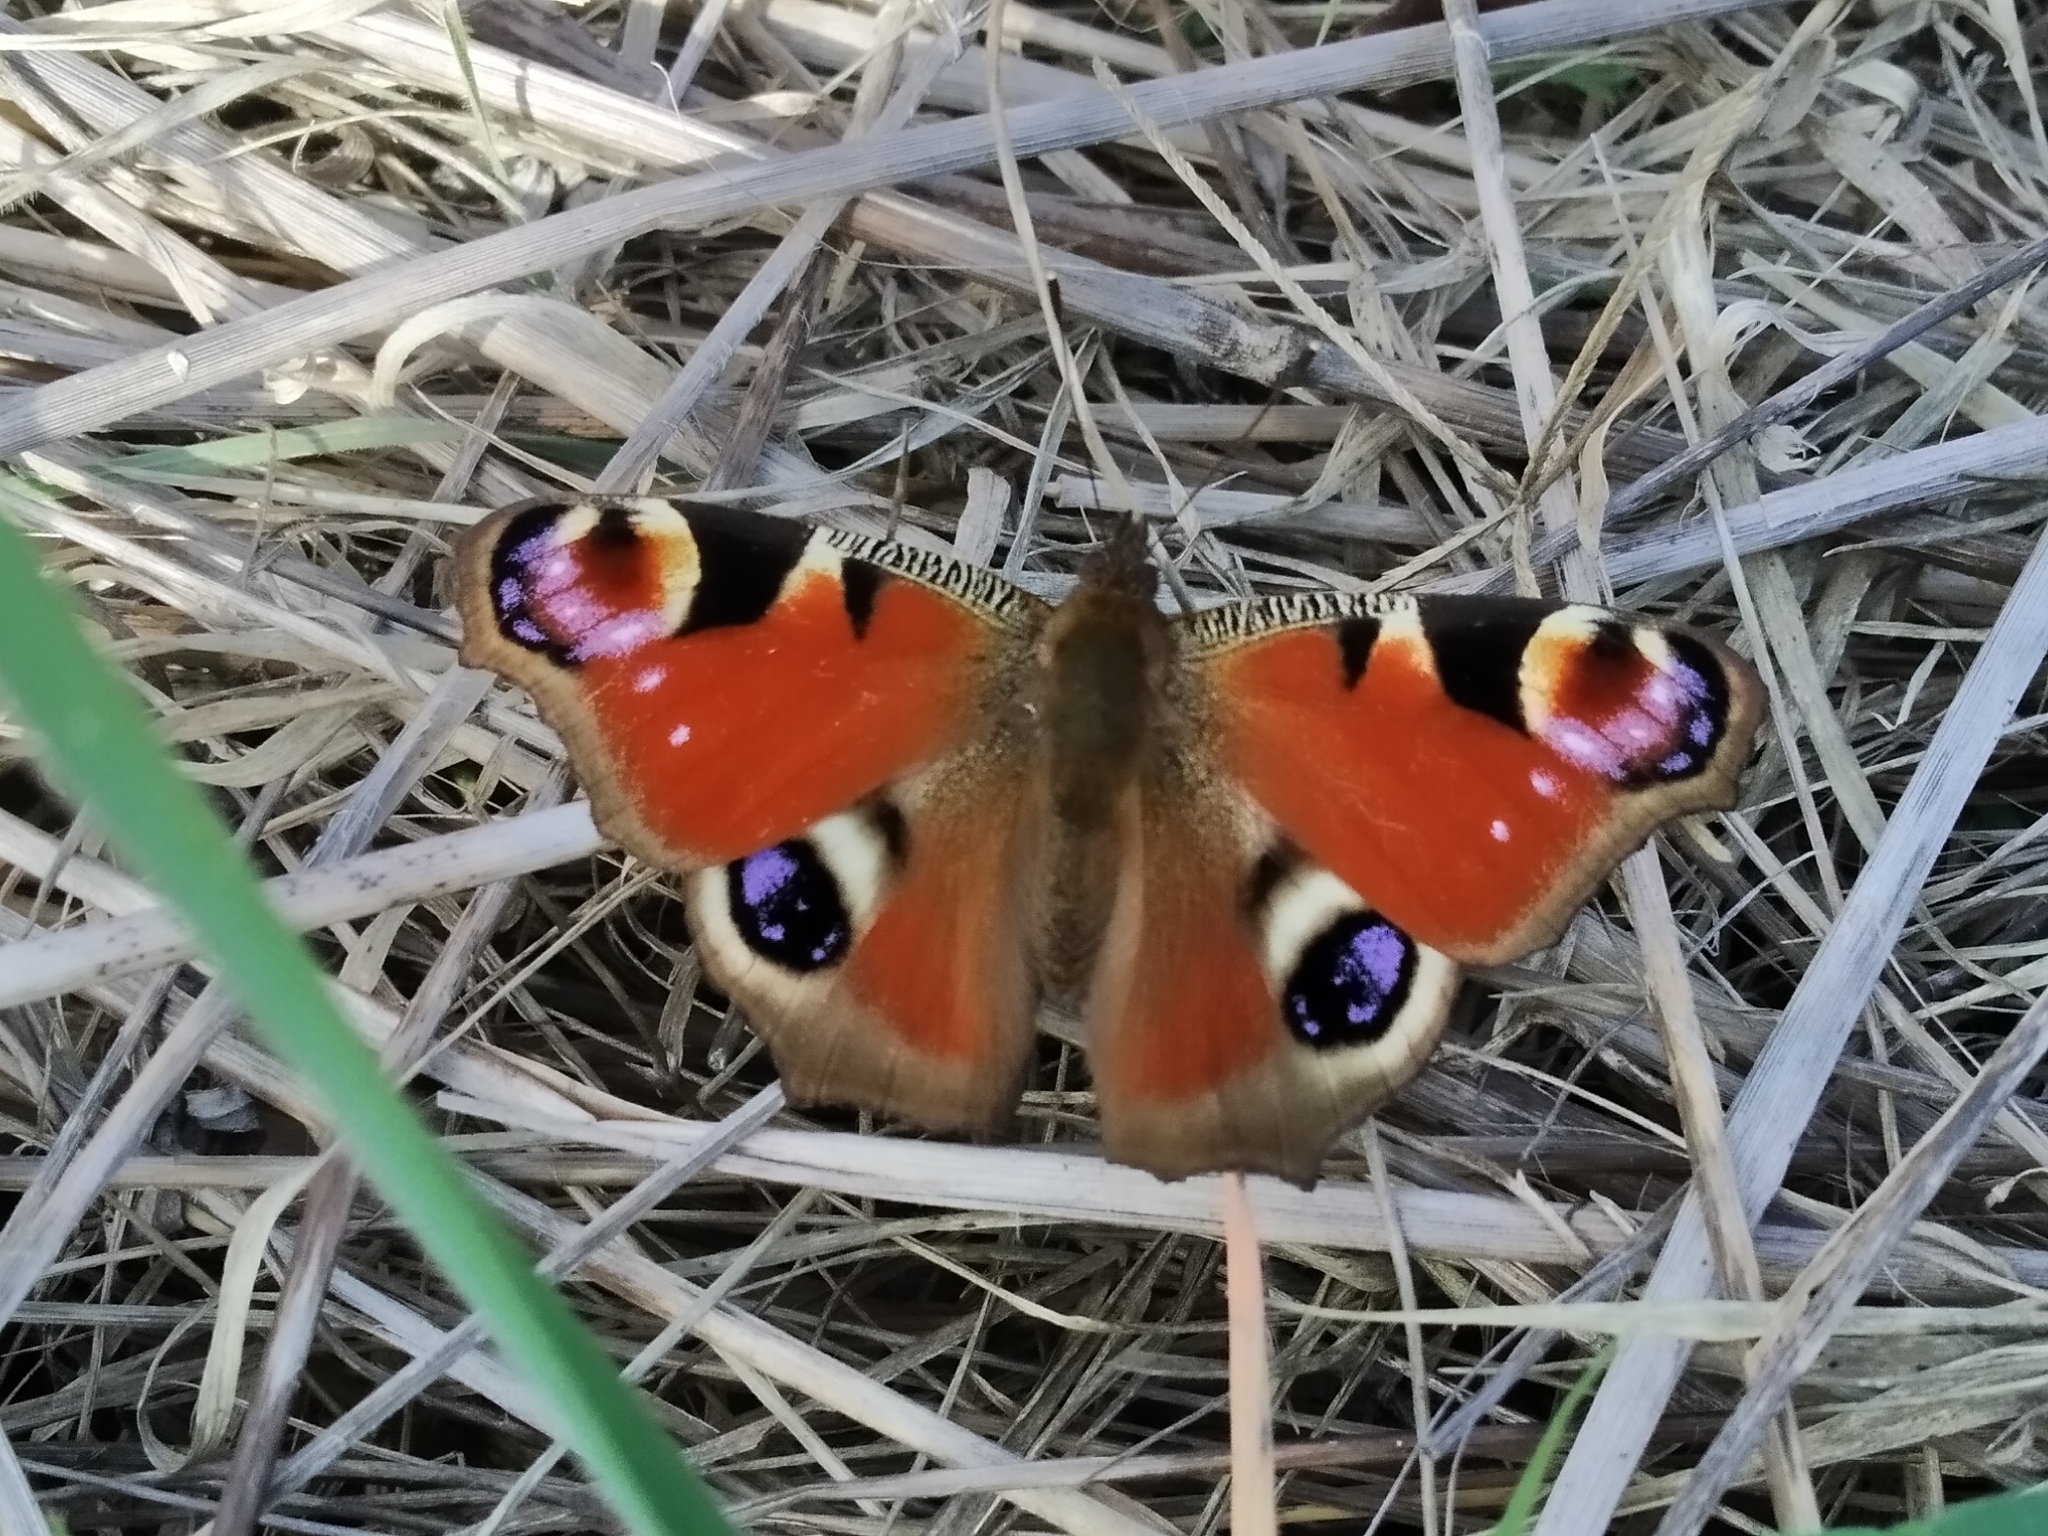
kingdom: Animalia
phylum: Arthropoda
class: Insecta
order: Lepidoptera
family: Nymphalidae
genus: Aglais
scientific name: Aglais io
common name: Peacock
